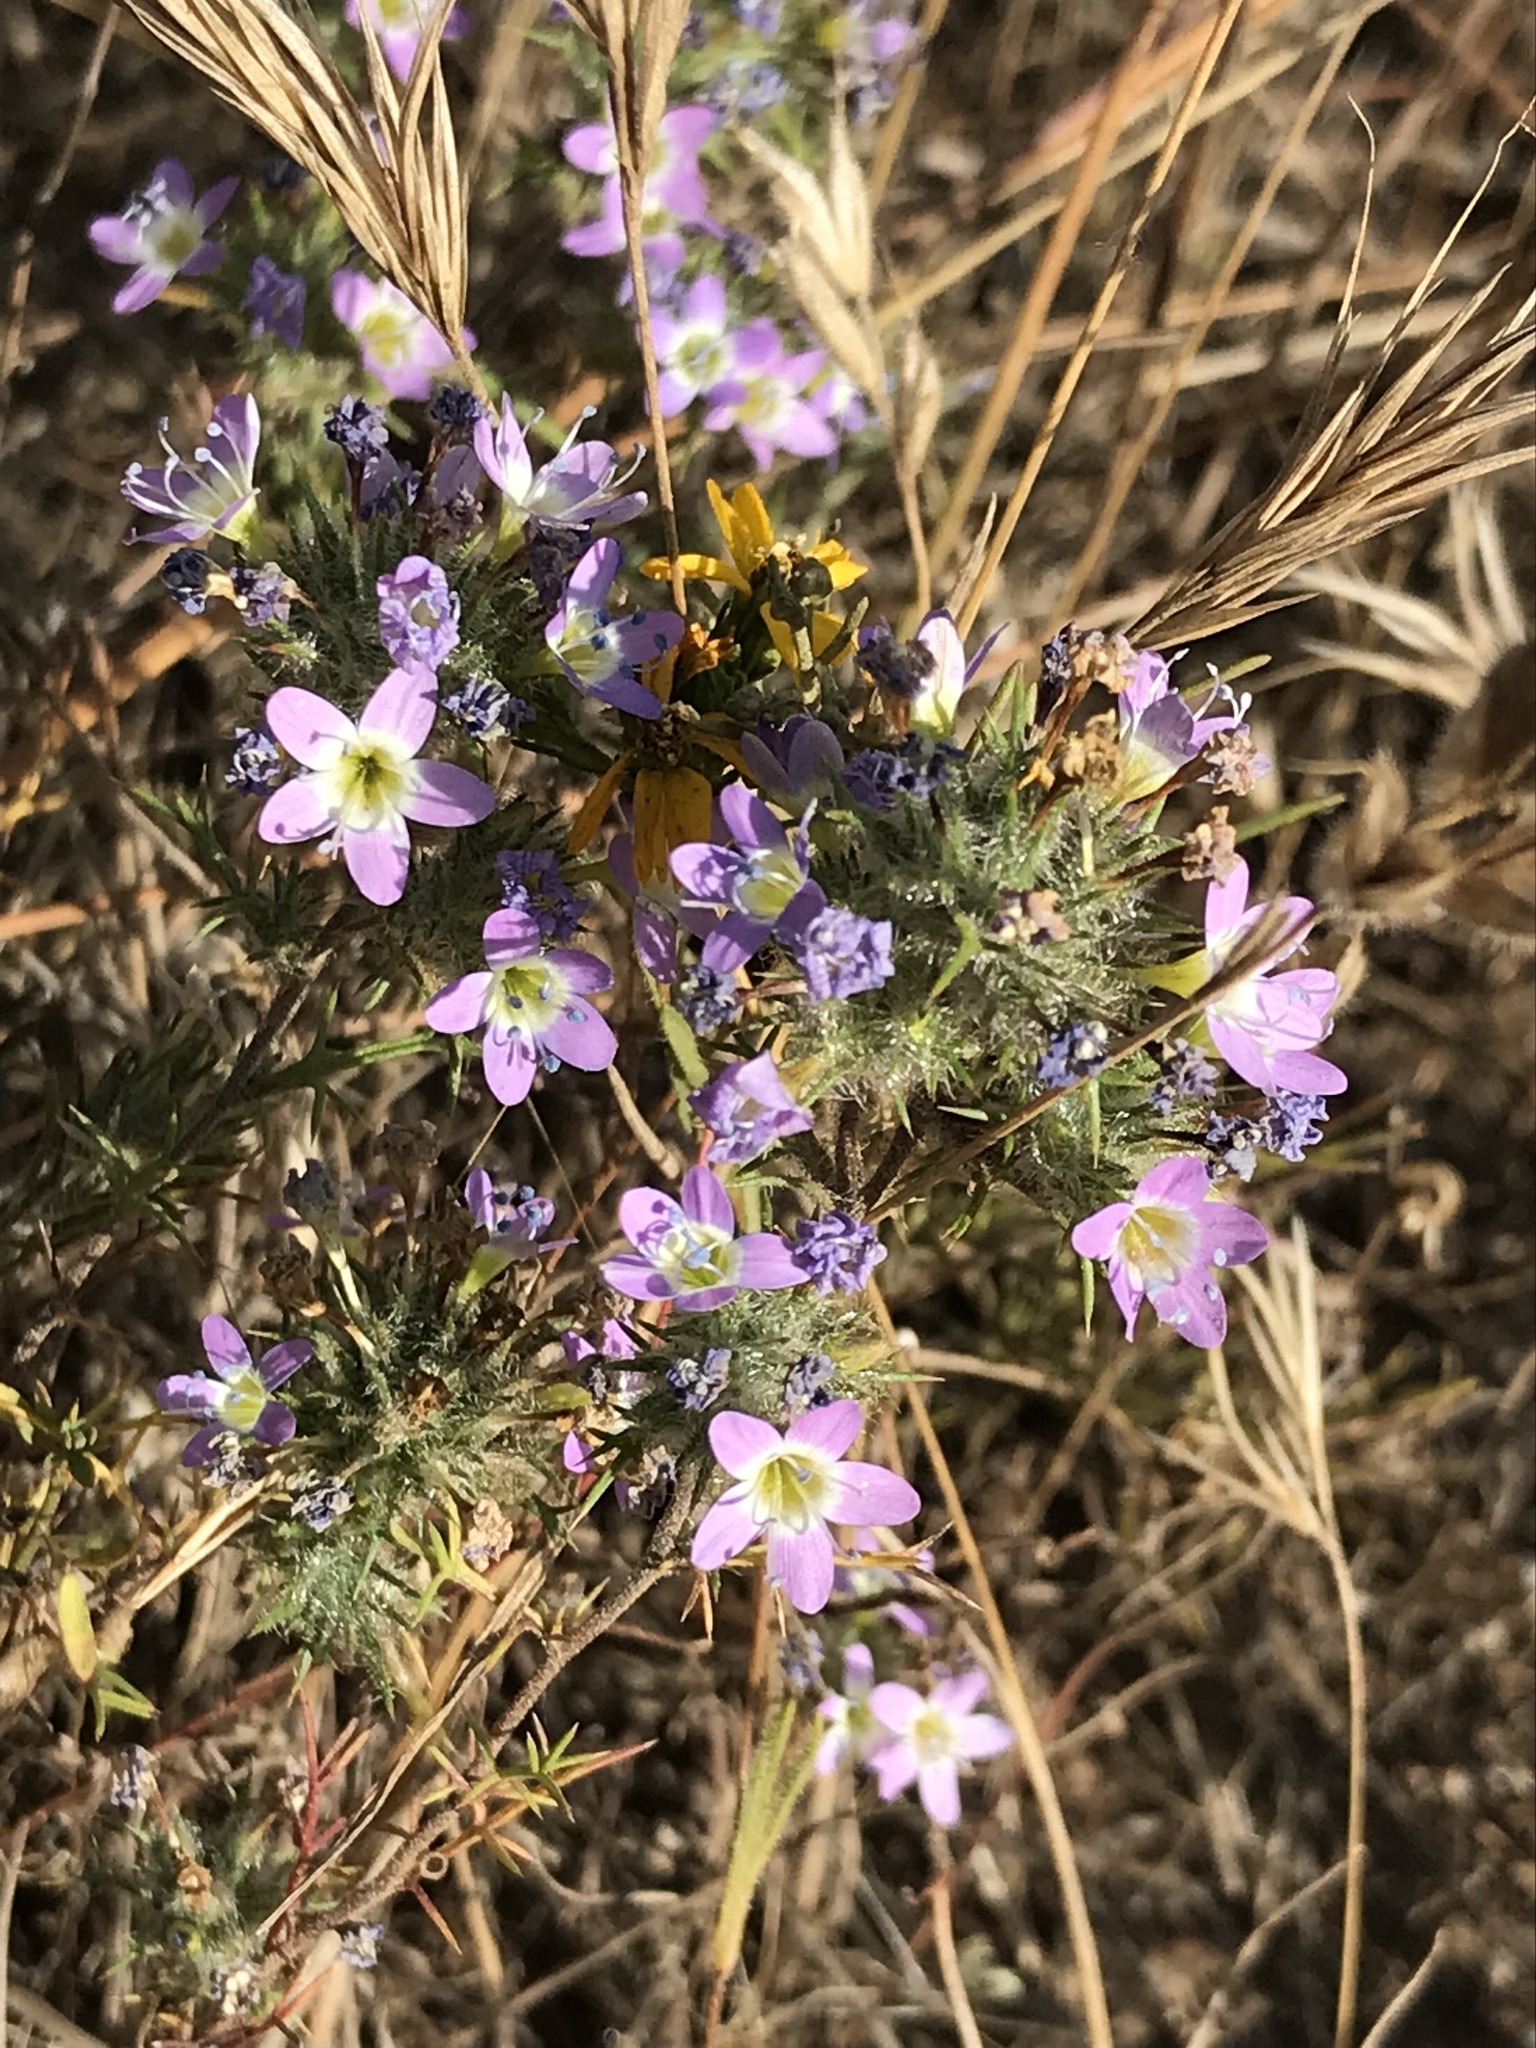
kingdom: Plantae
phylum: Tracheophyta
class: Magnoliopsida
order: Ericales
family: Polemoniaceae
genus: Navarretia
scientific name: Navarretia hamata
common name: Hooked navarretia
